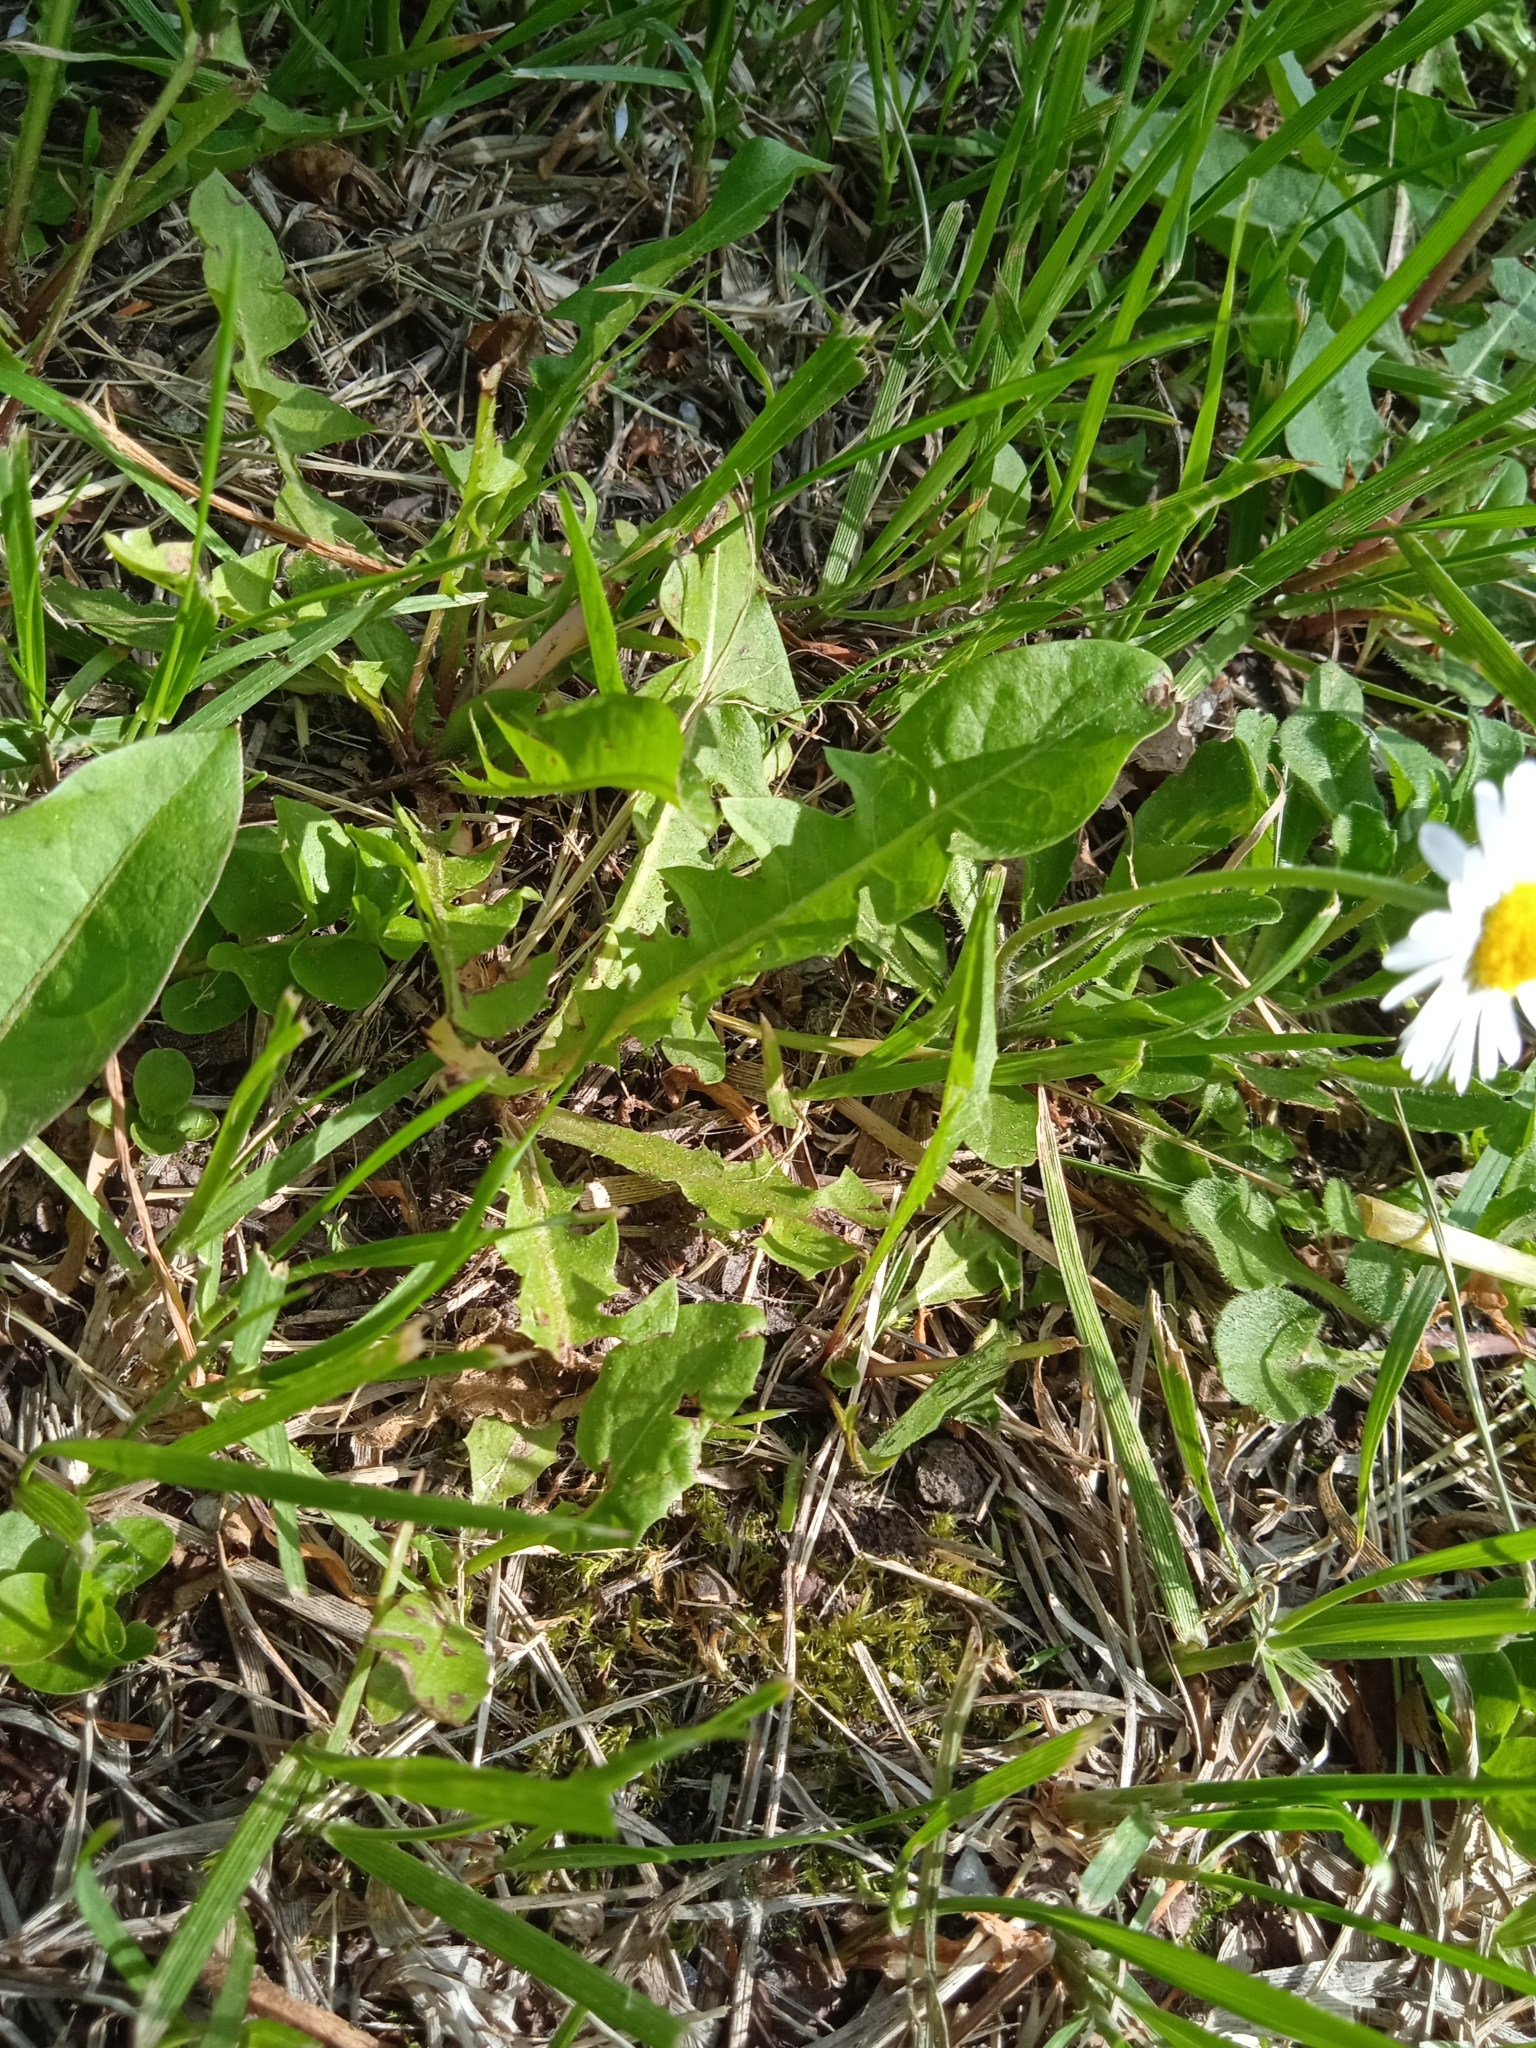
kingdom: Plantae
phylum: Tracheophyta
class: Magnoliopsida
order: Asterales
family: Asteraceae
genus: Bellis
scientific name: Bellis perennis
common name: Lawndaisy
